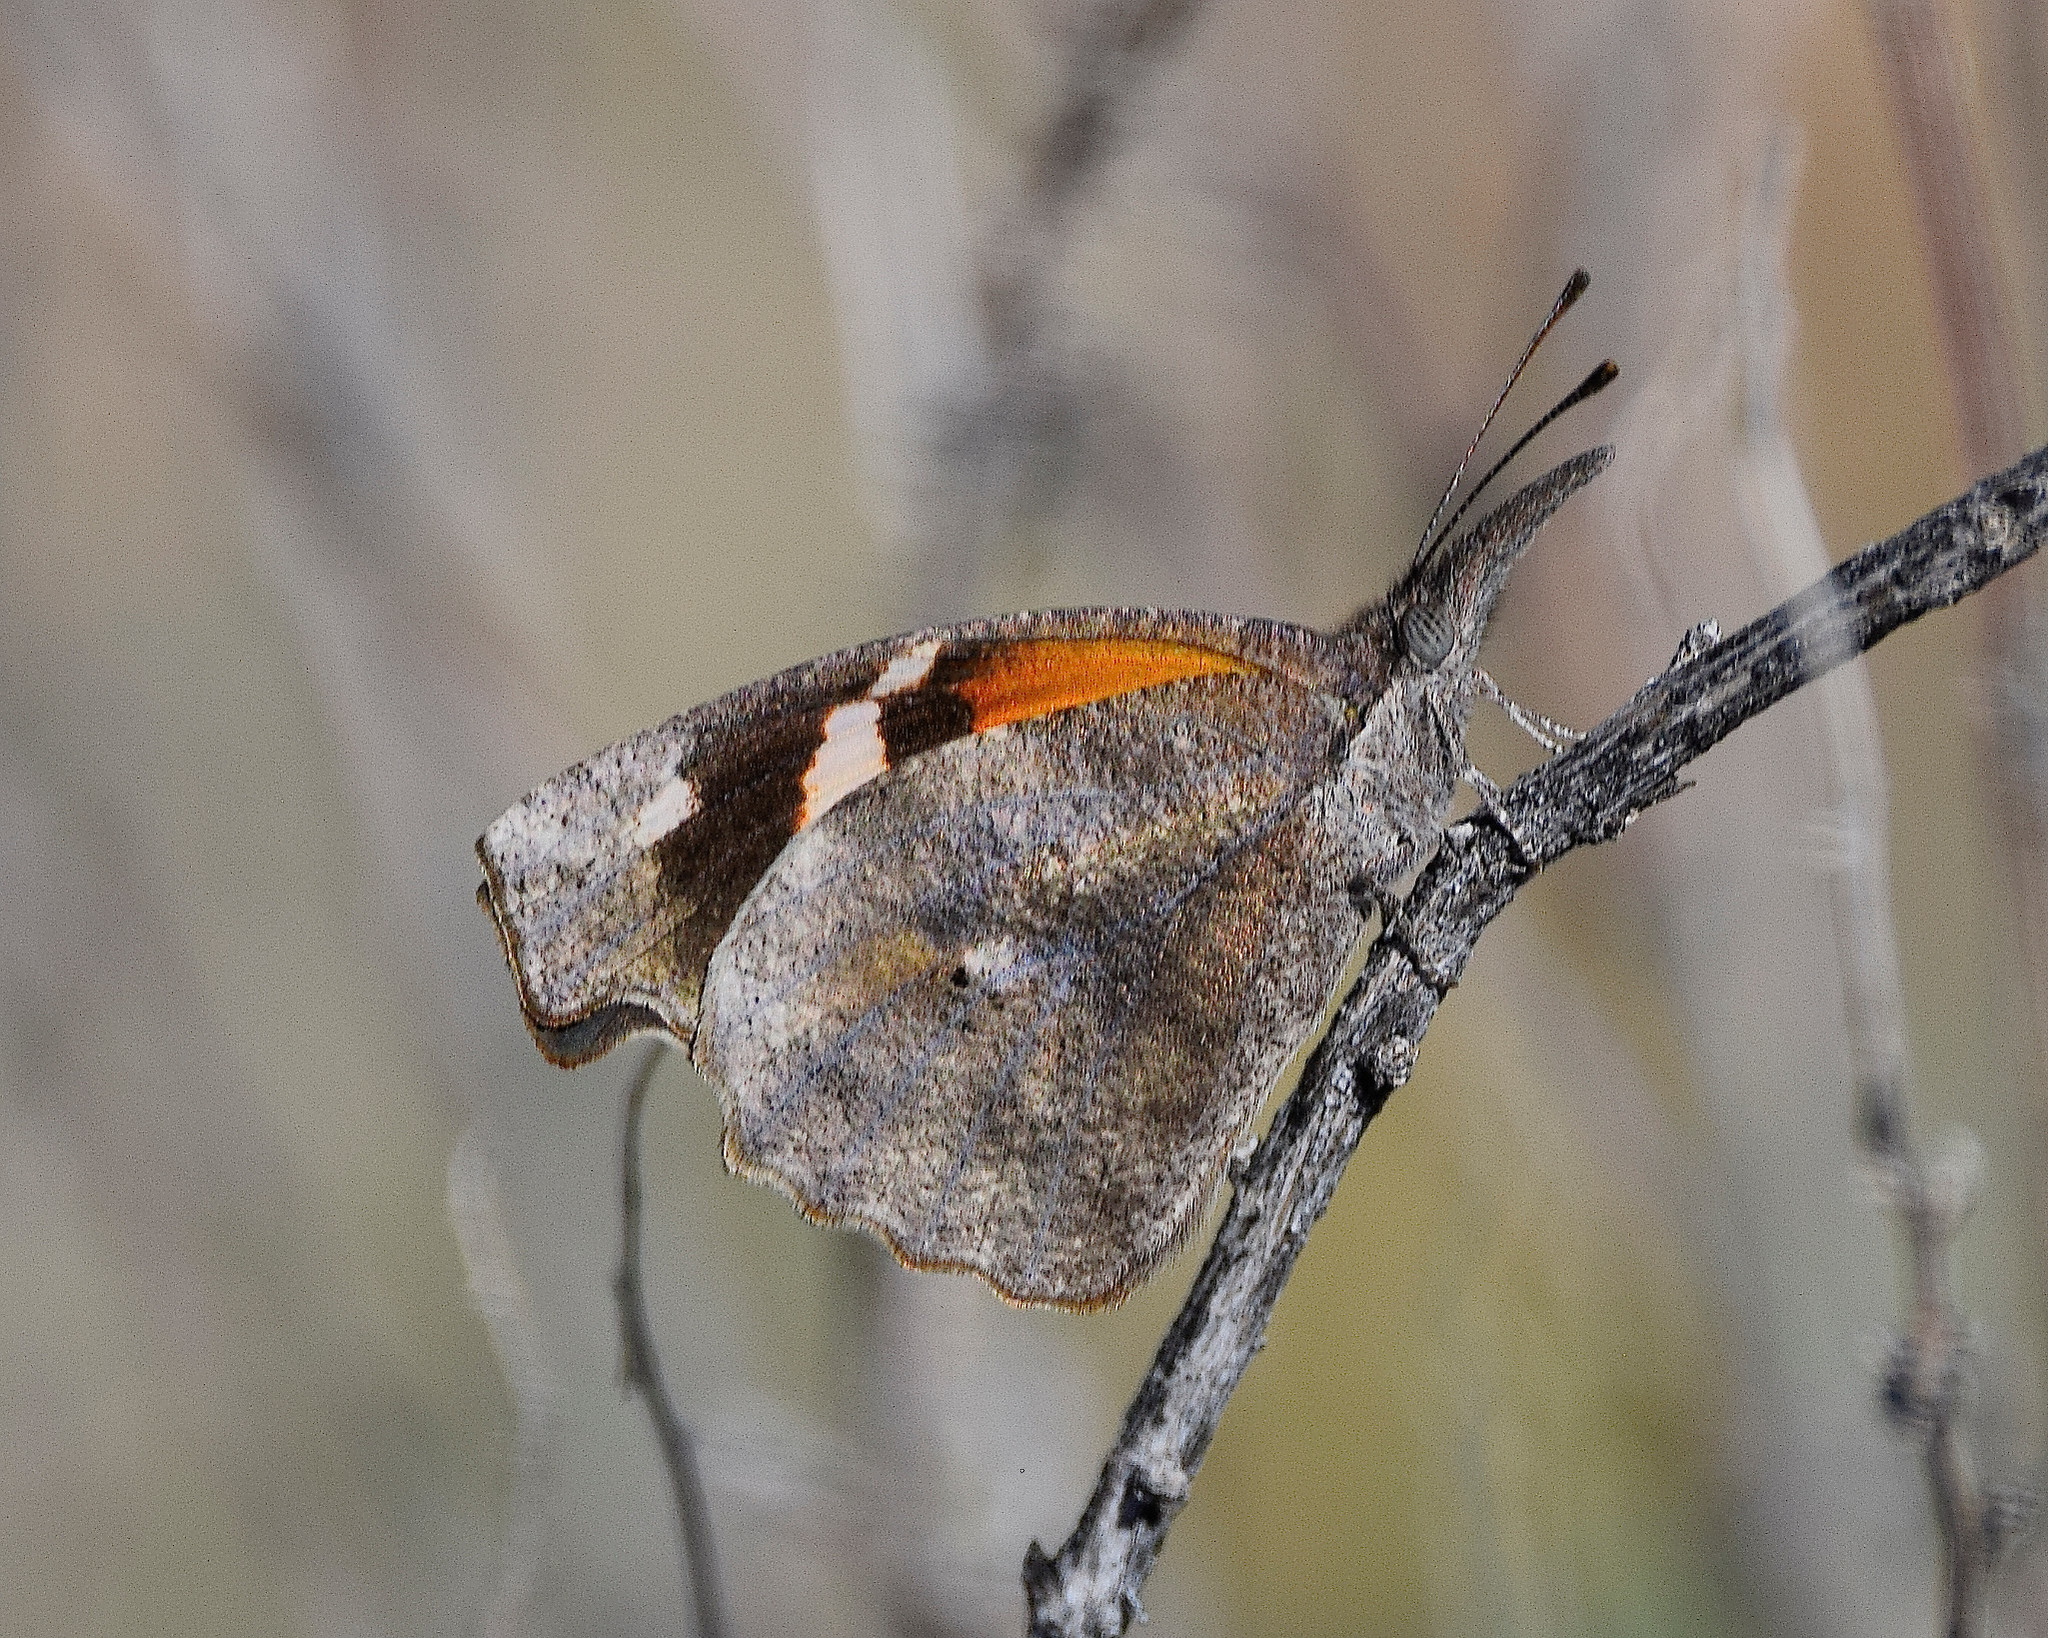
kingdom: Animalia
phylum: Arthropoda
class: Insecta
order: Lepidoptera
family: Nymphalidae
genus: Libytheana
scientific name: Libytheana carinenta
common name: American snout
